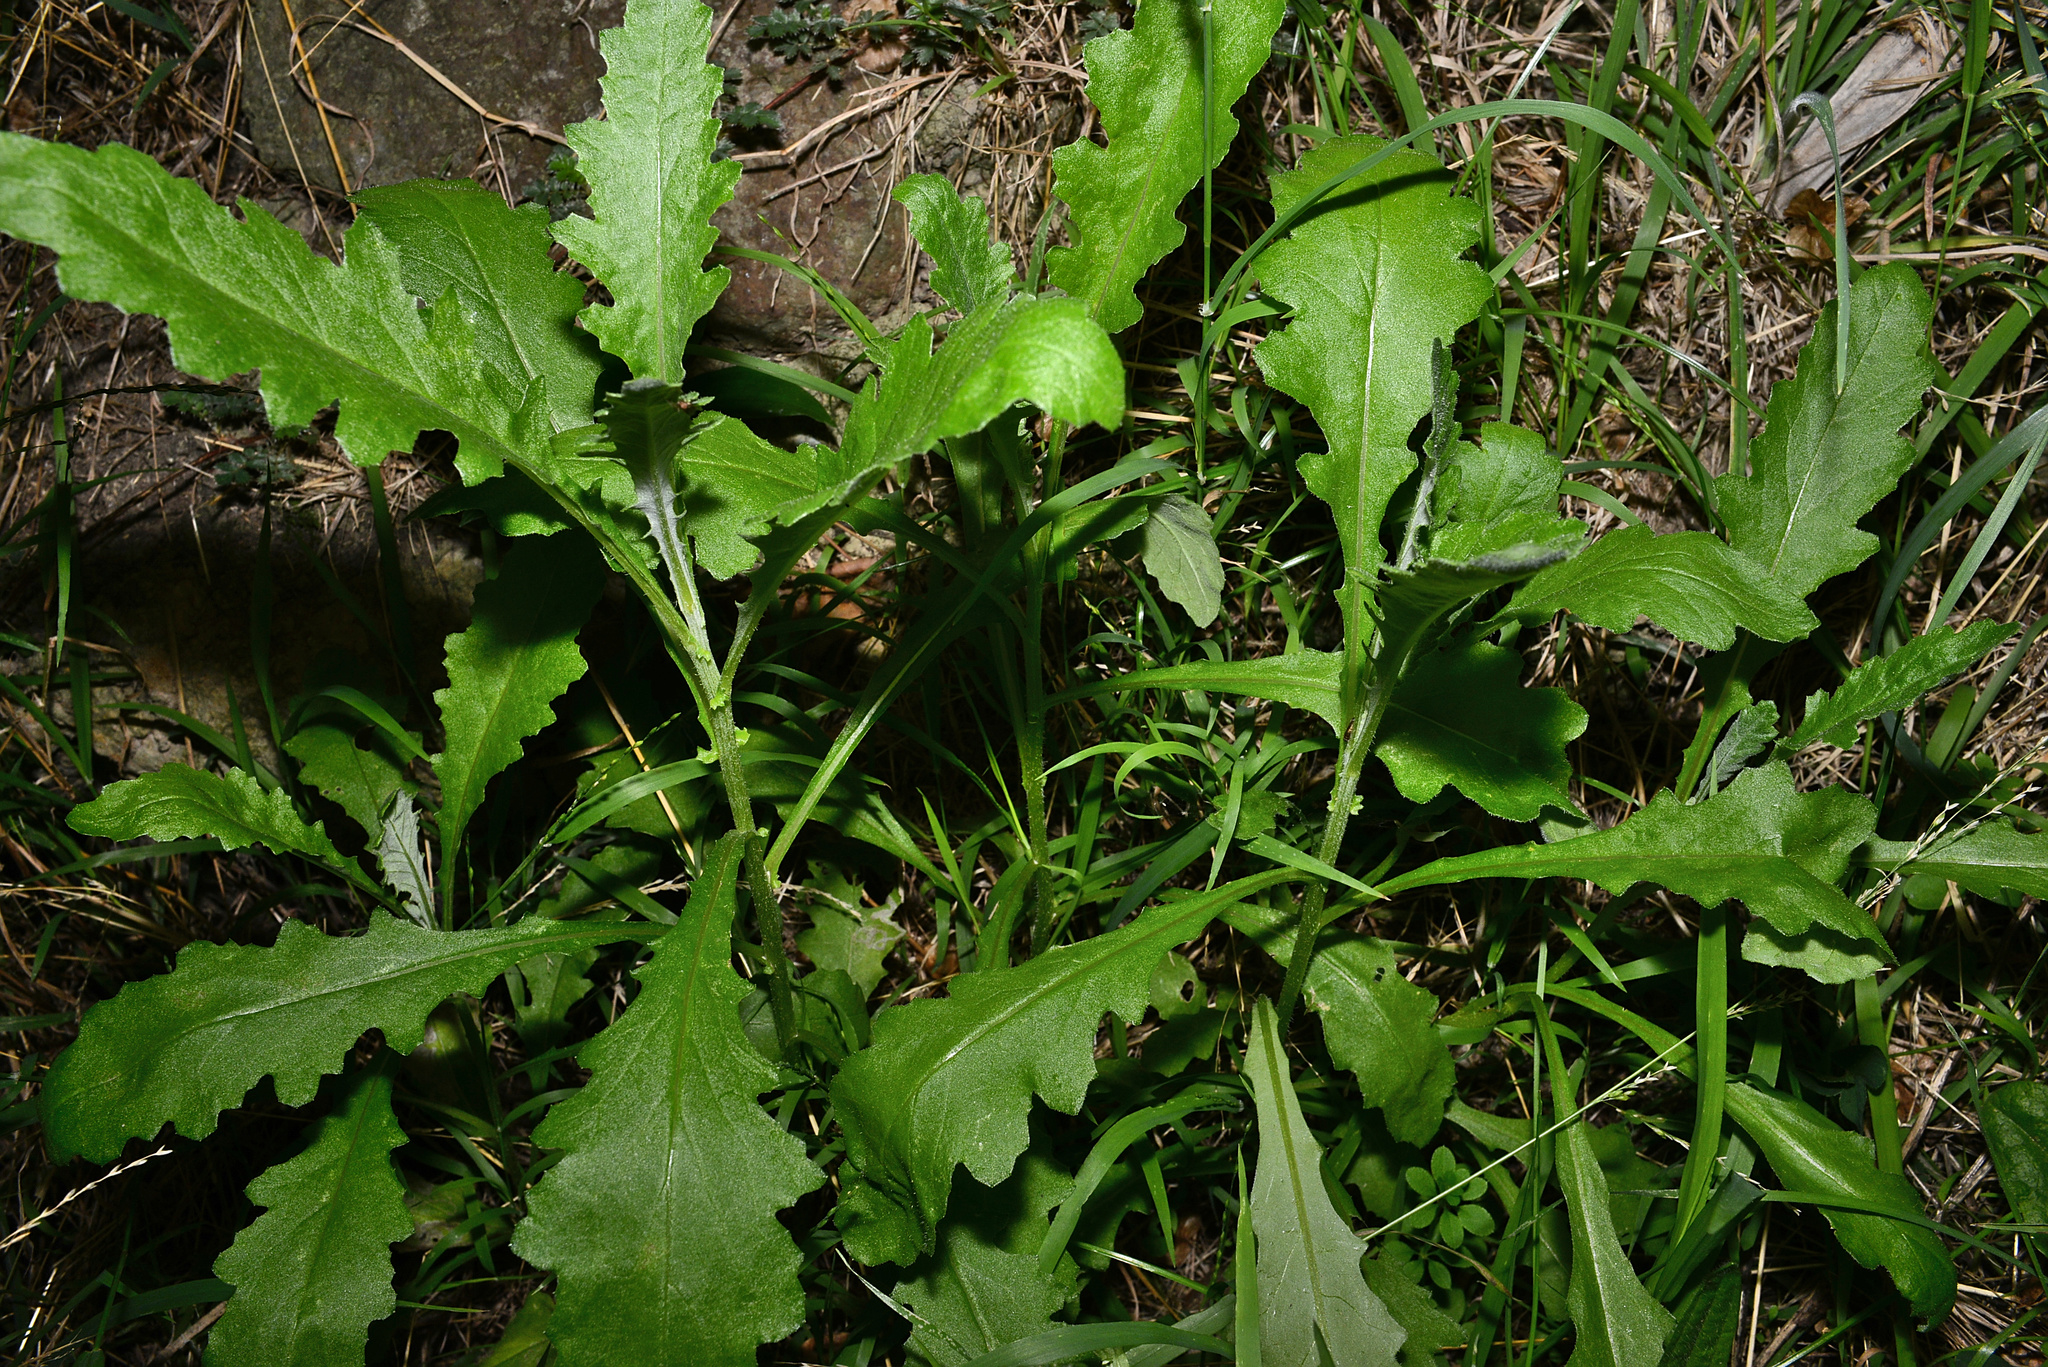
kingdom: Plantae
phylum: Tracheophyta
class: Magnoliopsida
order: Asterales
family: Asteraceae
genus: Senecio
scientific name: Senecio glomeratus
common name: Cutleaf burnweed
